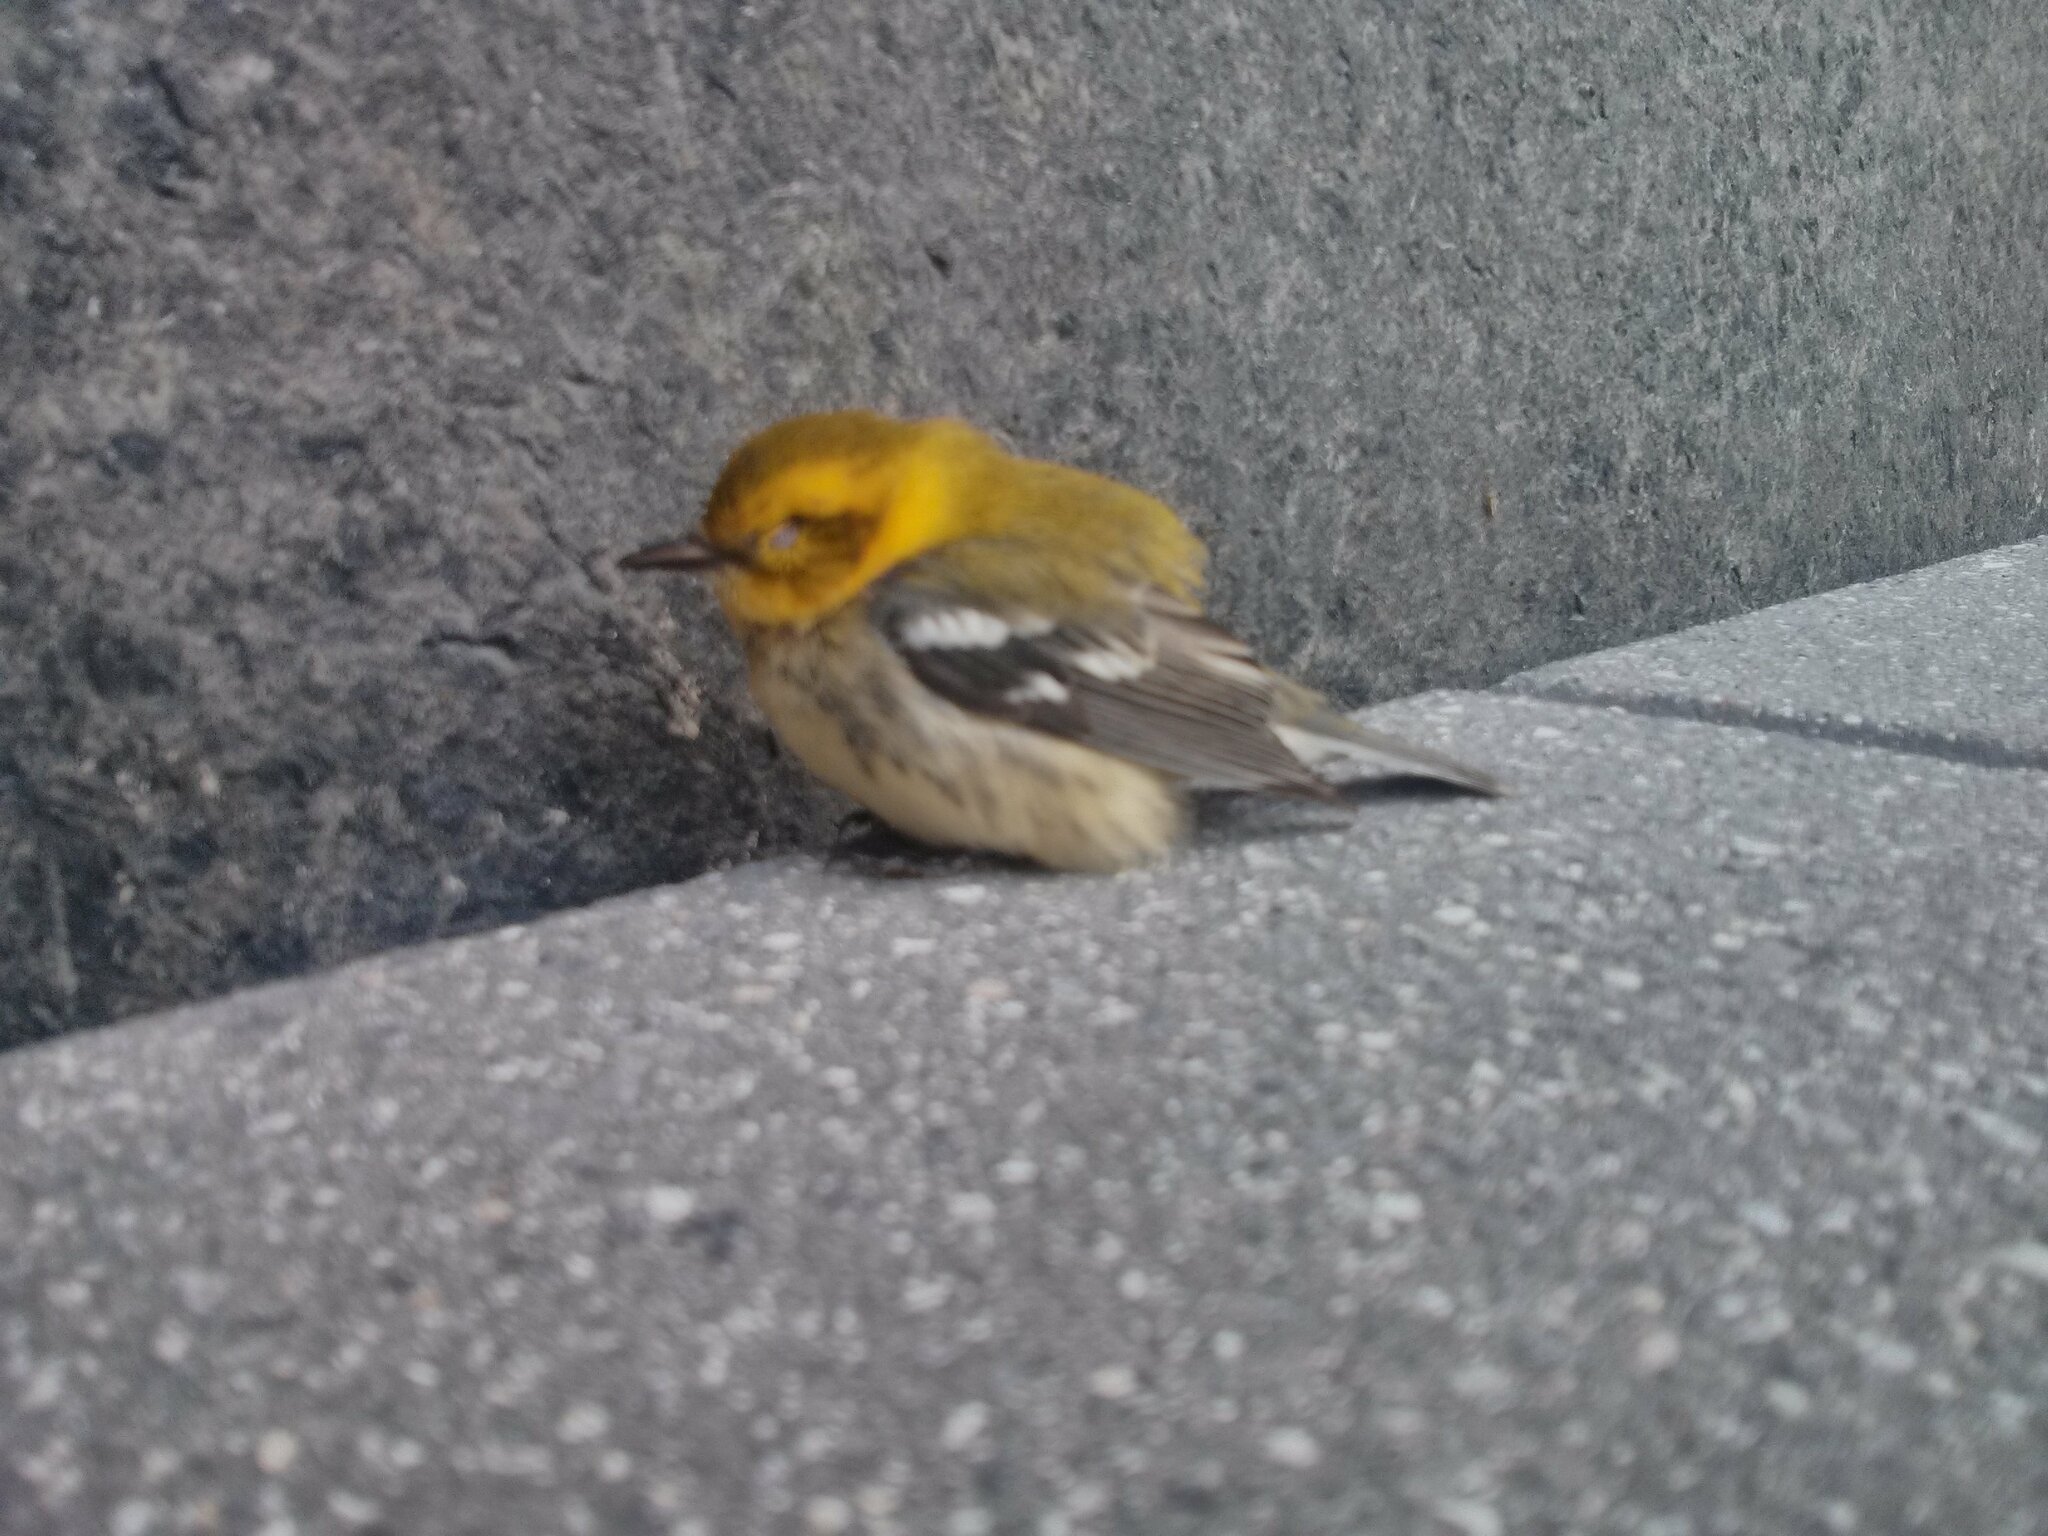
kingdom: Animalia
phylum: Chordata
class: Aves
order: Passeriformes
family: Parulidae
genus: Setophaga
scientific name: Setophaga virens
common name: Black-throated green warbler
